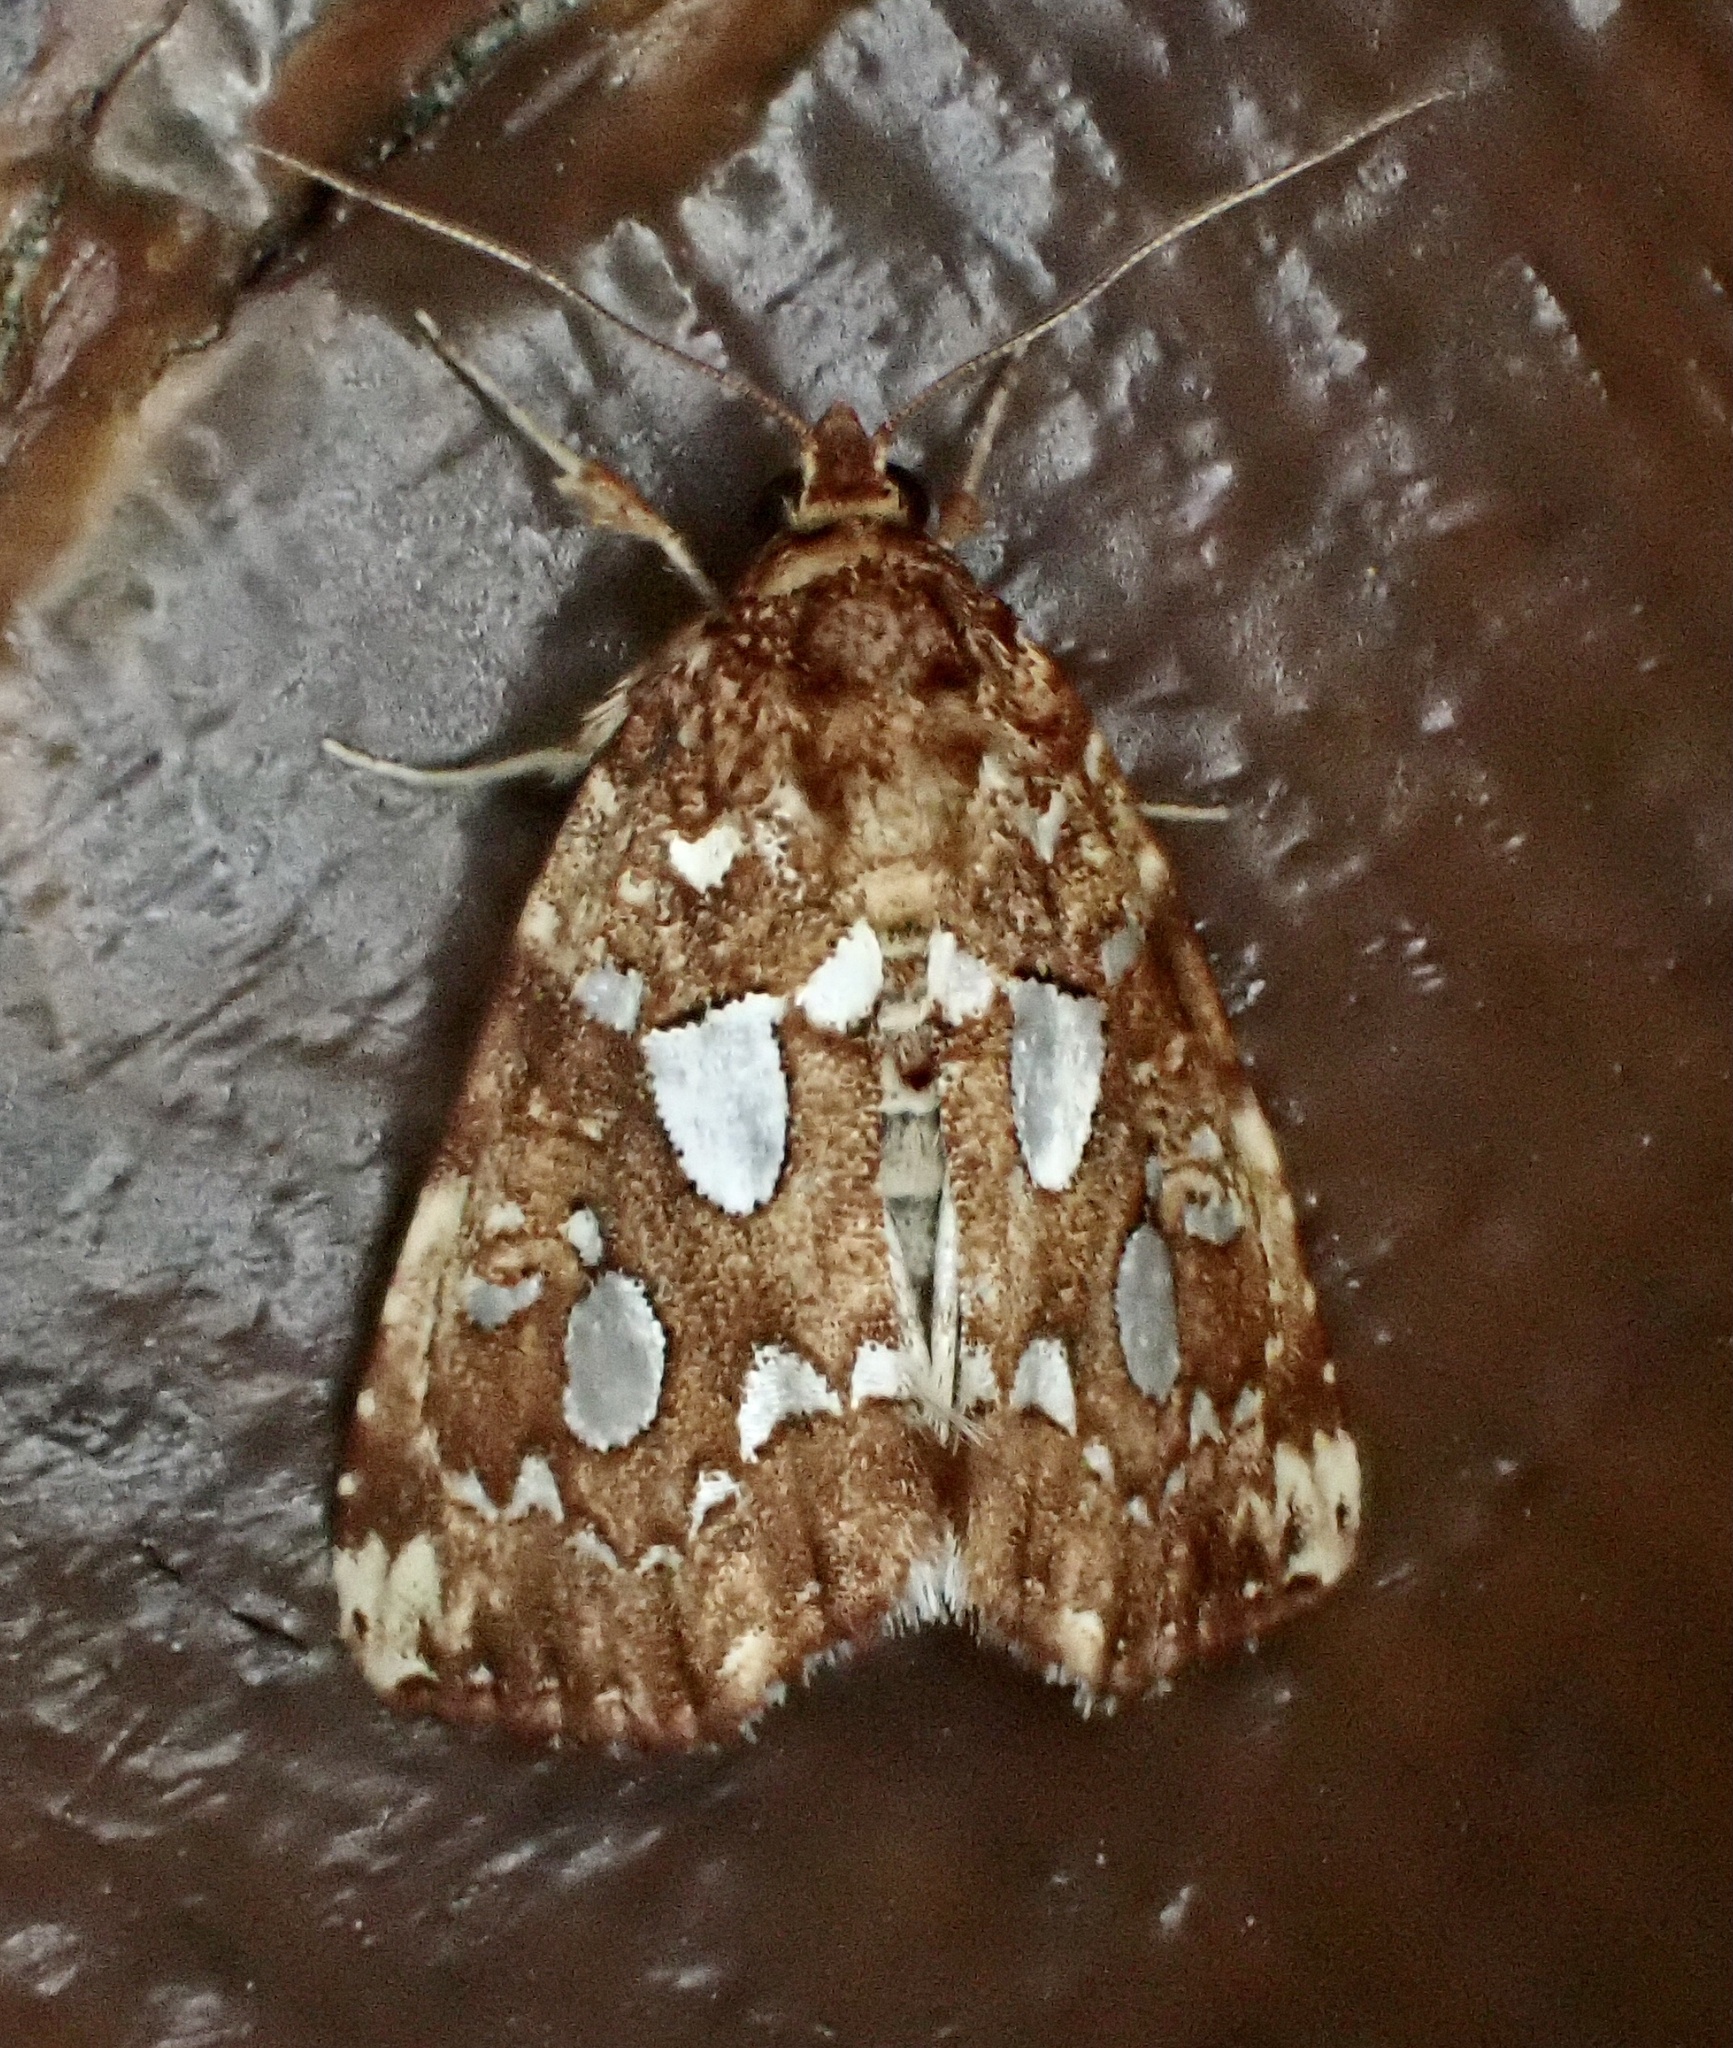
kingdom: Animalia
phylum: Arthropoda
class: Insecta
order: Lepidoptera
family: Noctuidae
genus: Callopistria
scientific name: Callopistria cordata
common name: Silver-spotted fern moth
